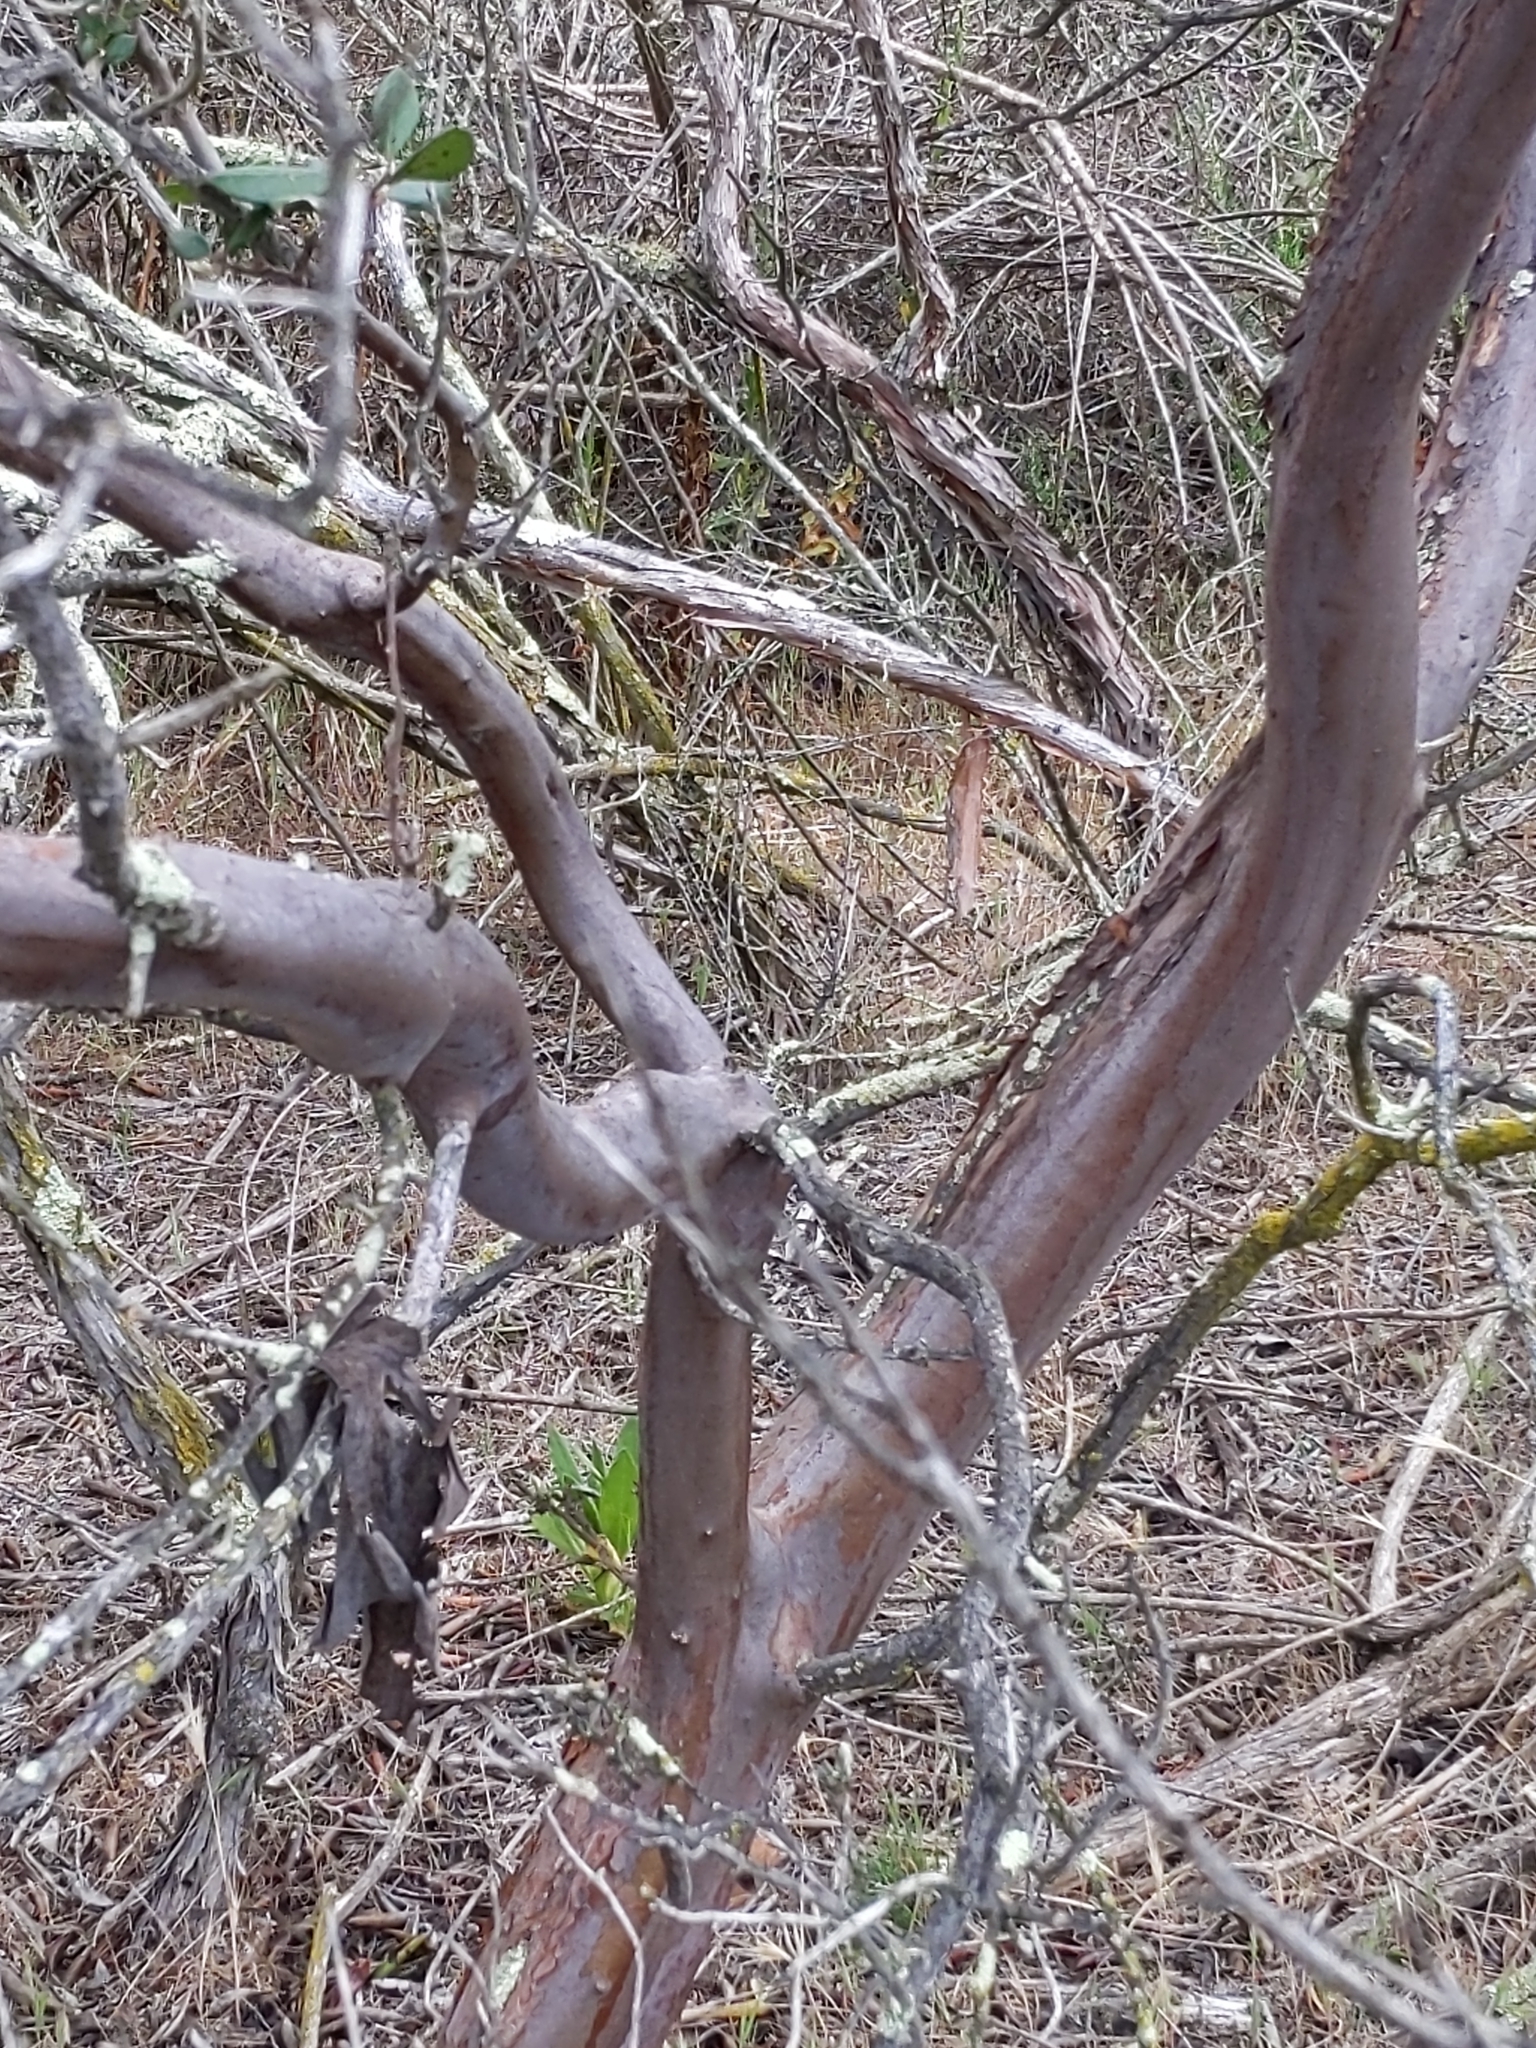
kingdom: Plantae
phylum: Tracheophyta
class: Magnoliopsida
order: Ericales
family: Ericaceae
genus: Arctostaphylos
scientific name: Arctostaphylos bicolor
